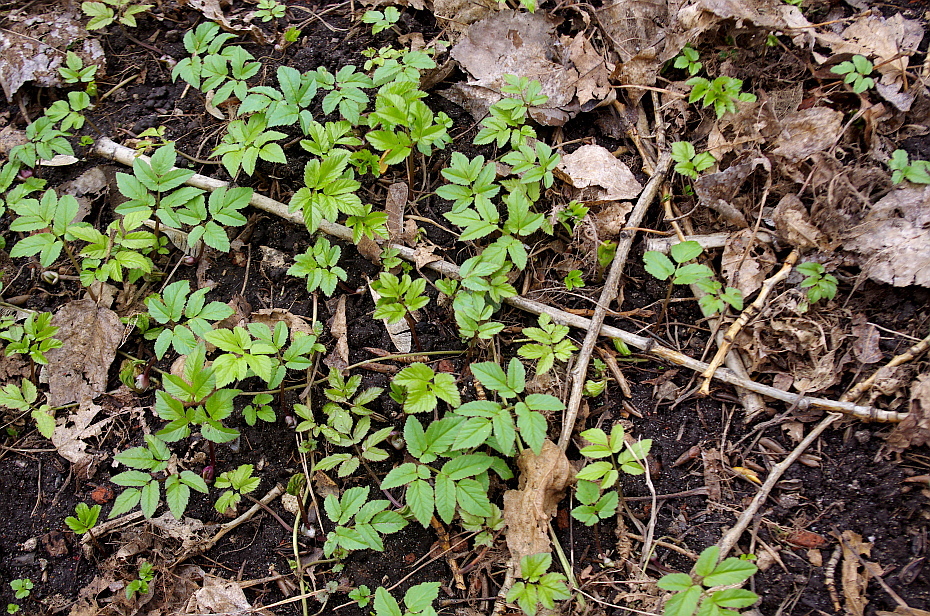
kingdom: Plantae
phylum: Tracheophyta
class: Magnoliopsida
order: Apiales
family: Apiaceae
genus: Aegopodium
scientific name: Aegopodium podagraria
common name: Ground-elder
